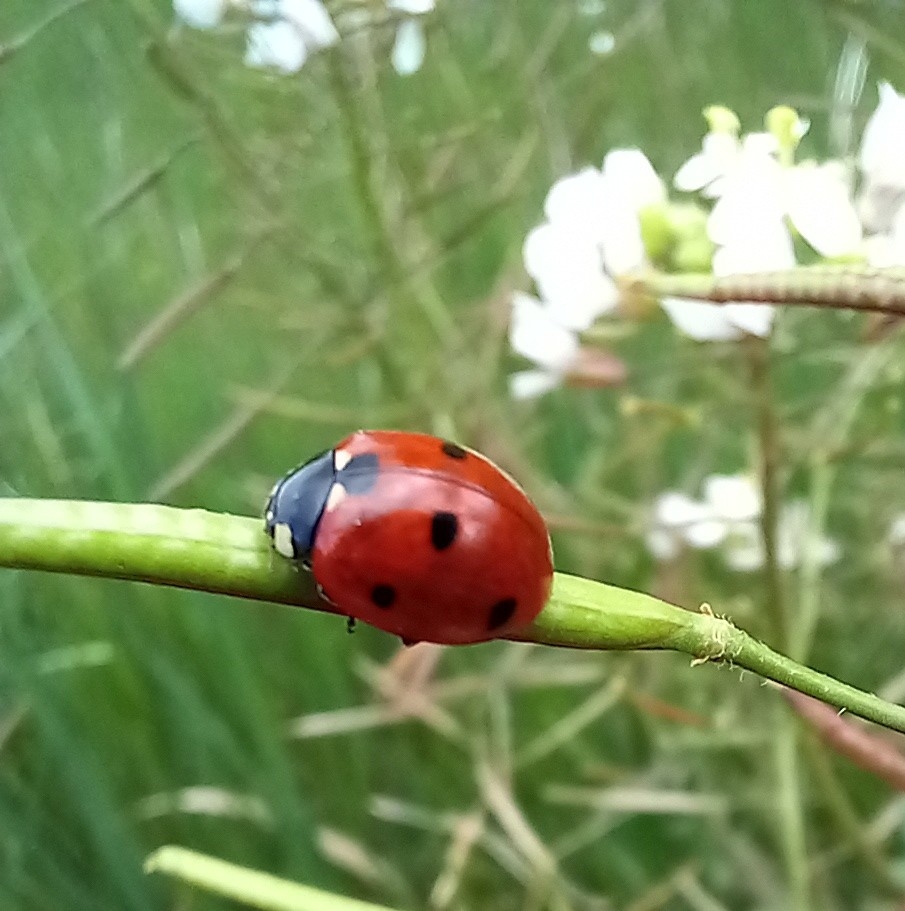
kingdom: Animalia
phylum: Arthropoda
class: Insecta
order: Coleoptera
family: Coccinellidae
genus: Coccinella
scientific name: Coccinella septempunctata
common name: Sevenspotted lady beetle
